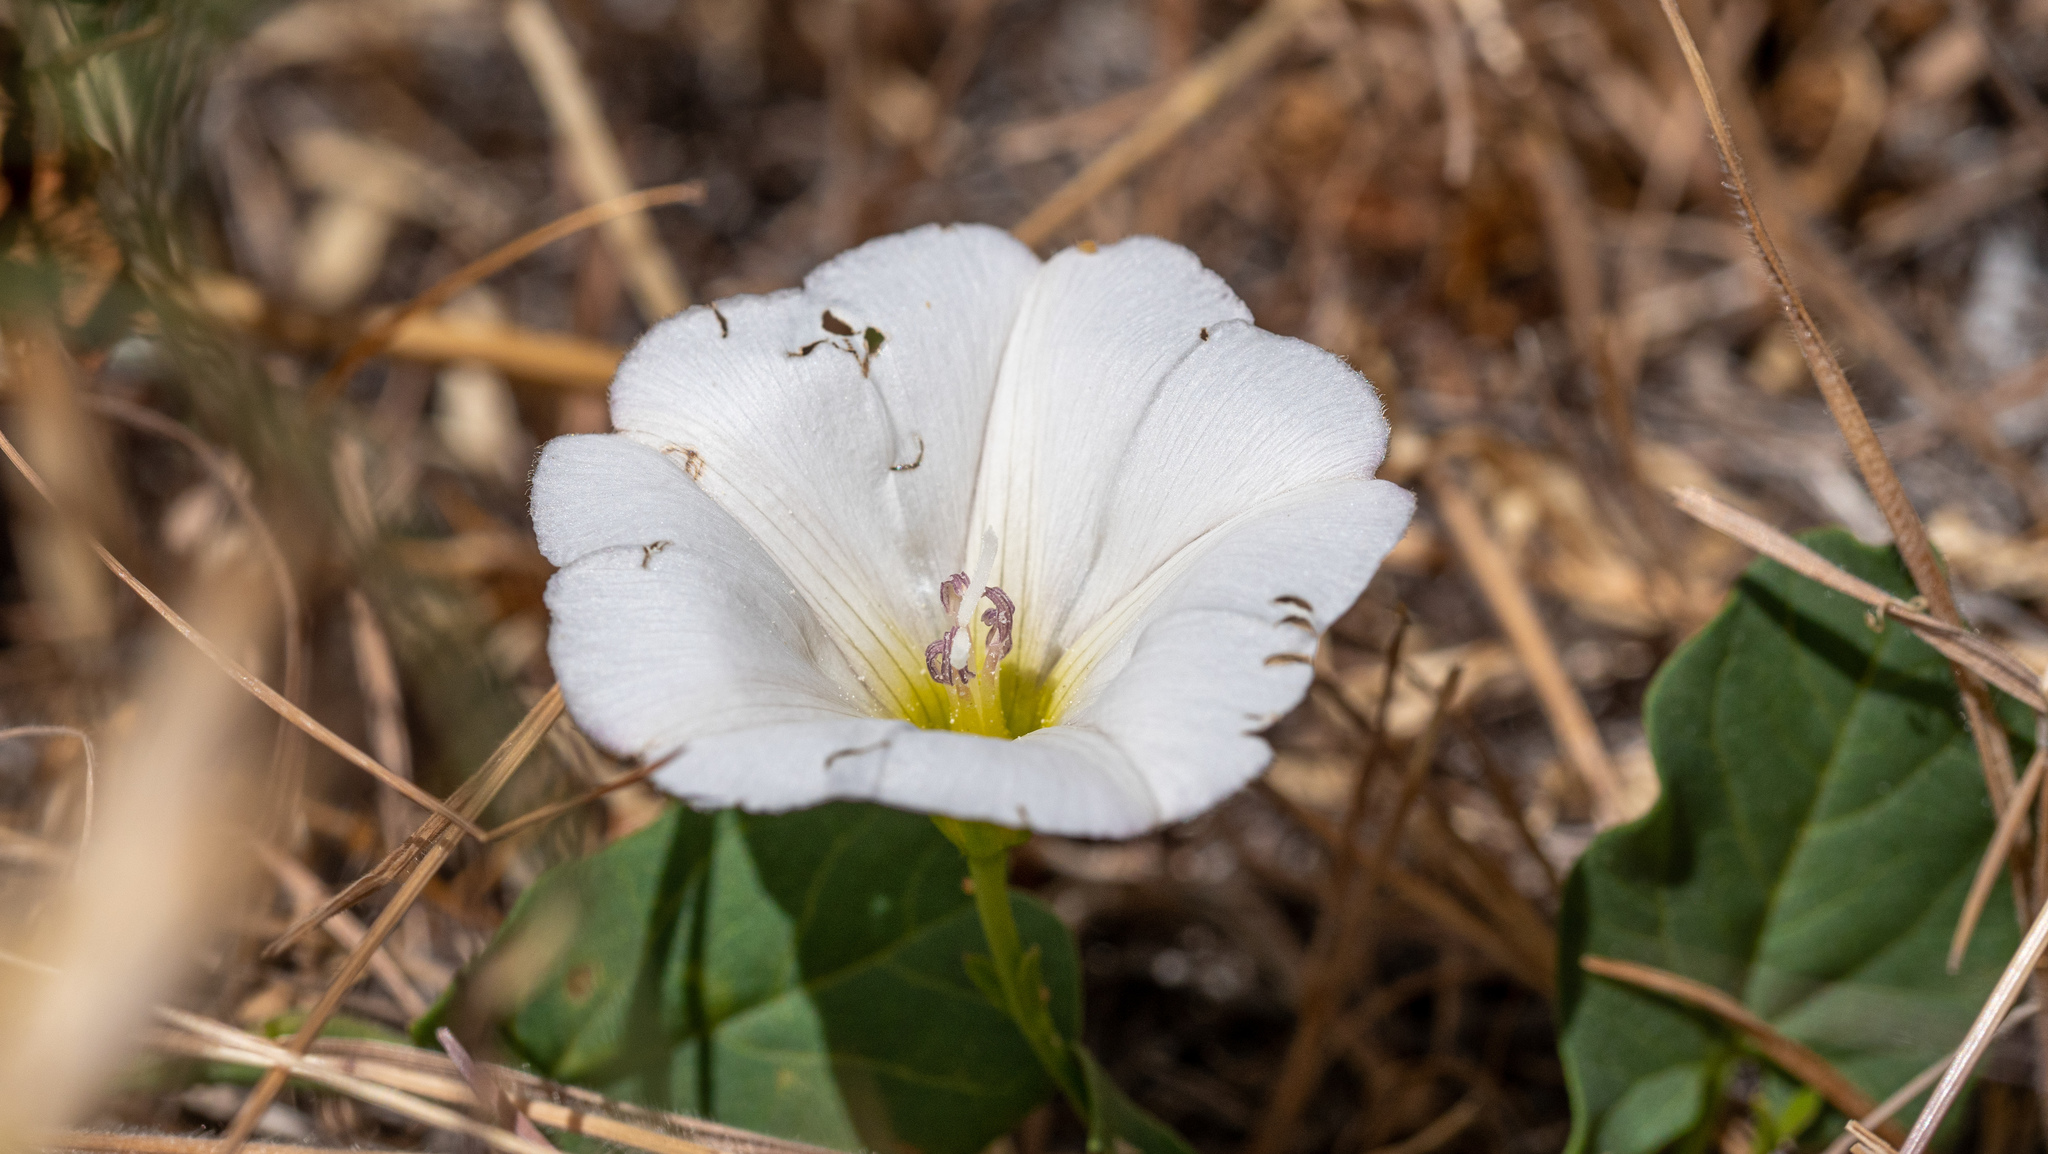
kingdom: Plantae
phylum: Tracheophyta
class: Magnoliopsida
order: Solanales
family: Convolvulaceae
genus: Convolvulus
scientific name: Convolvulus arvensis
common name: Field bindweed
